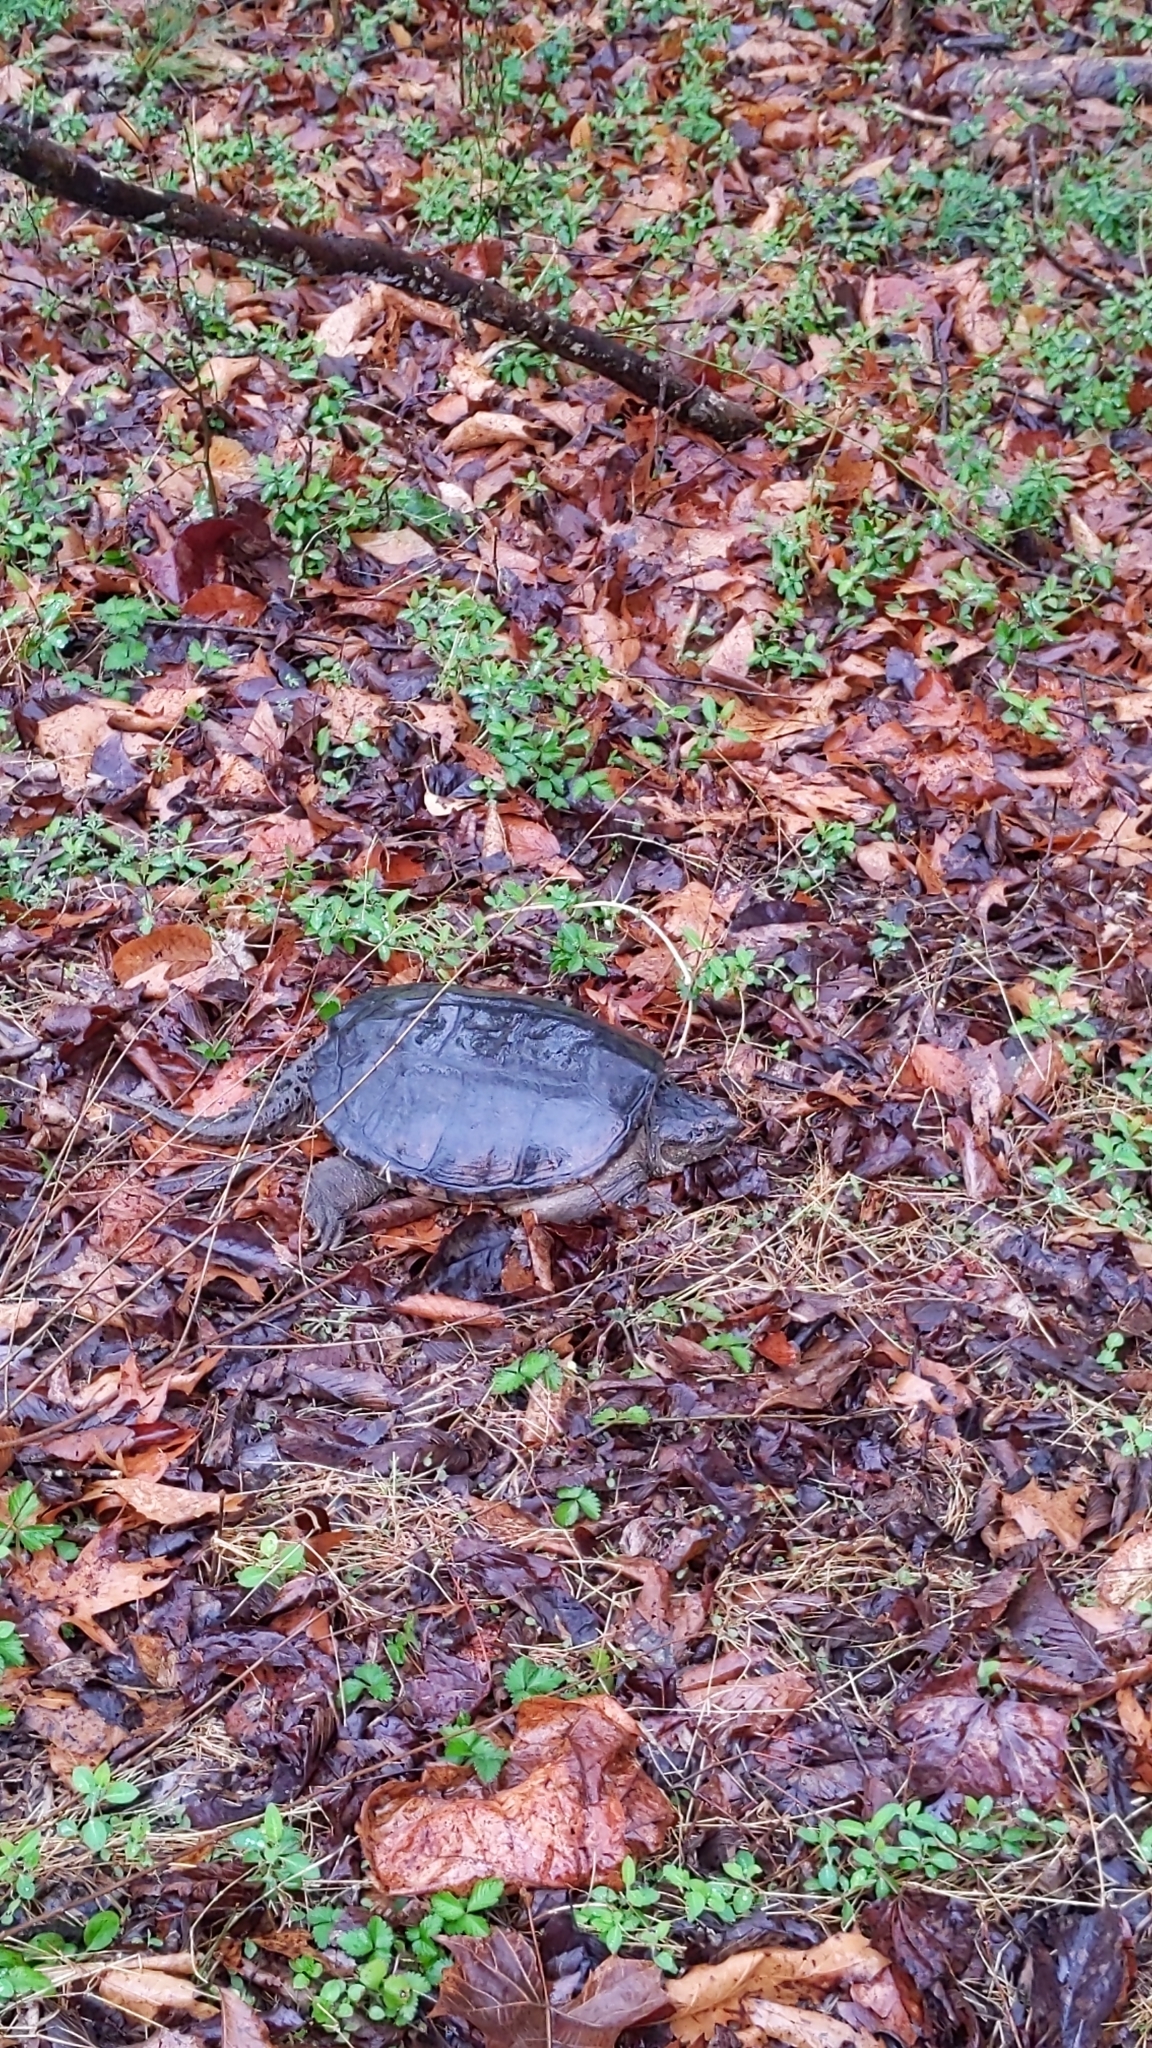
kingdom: Animalia
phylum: Chordata
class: Testudines
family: Chelydridae
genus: Chelydra
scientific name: Chelydra serpentina
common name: Common snapping turtle
